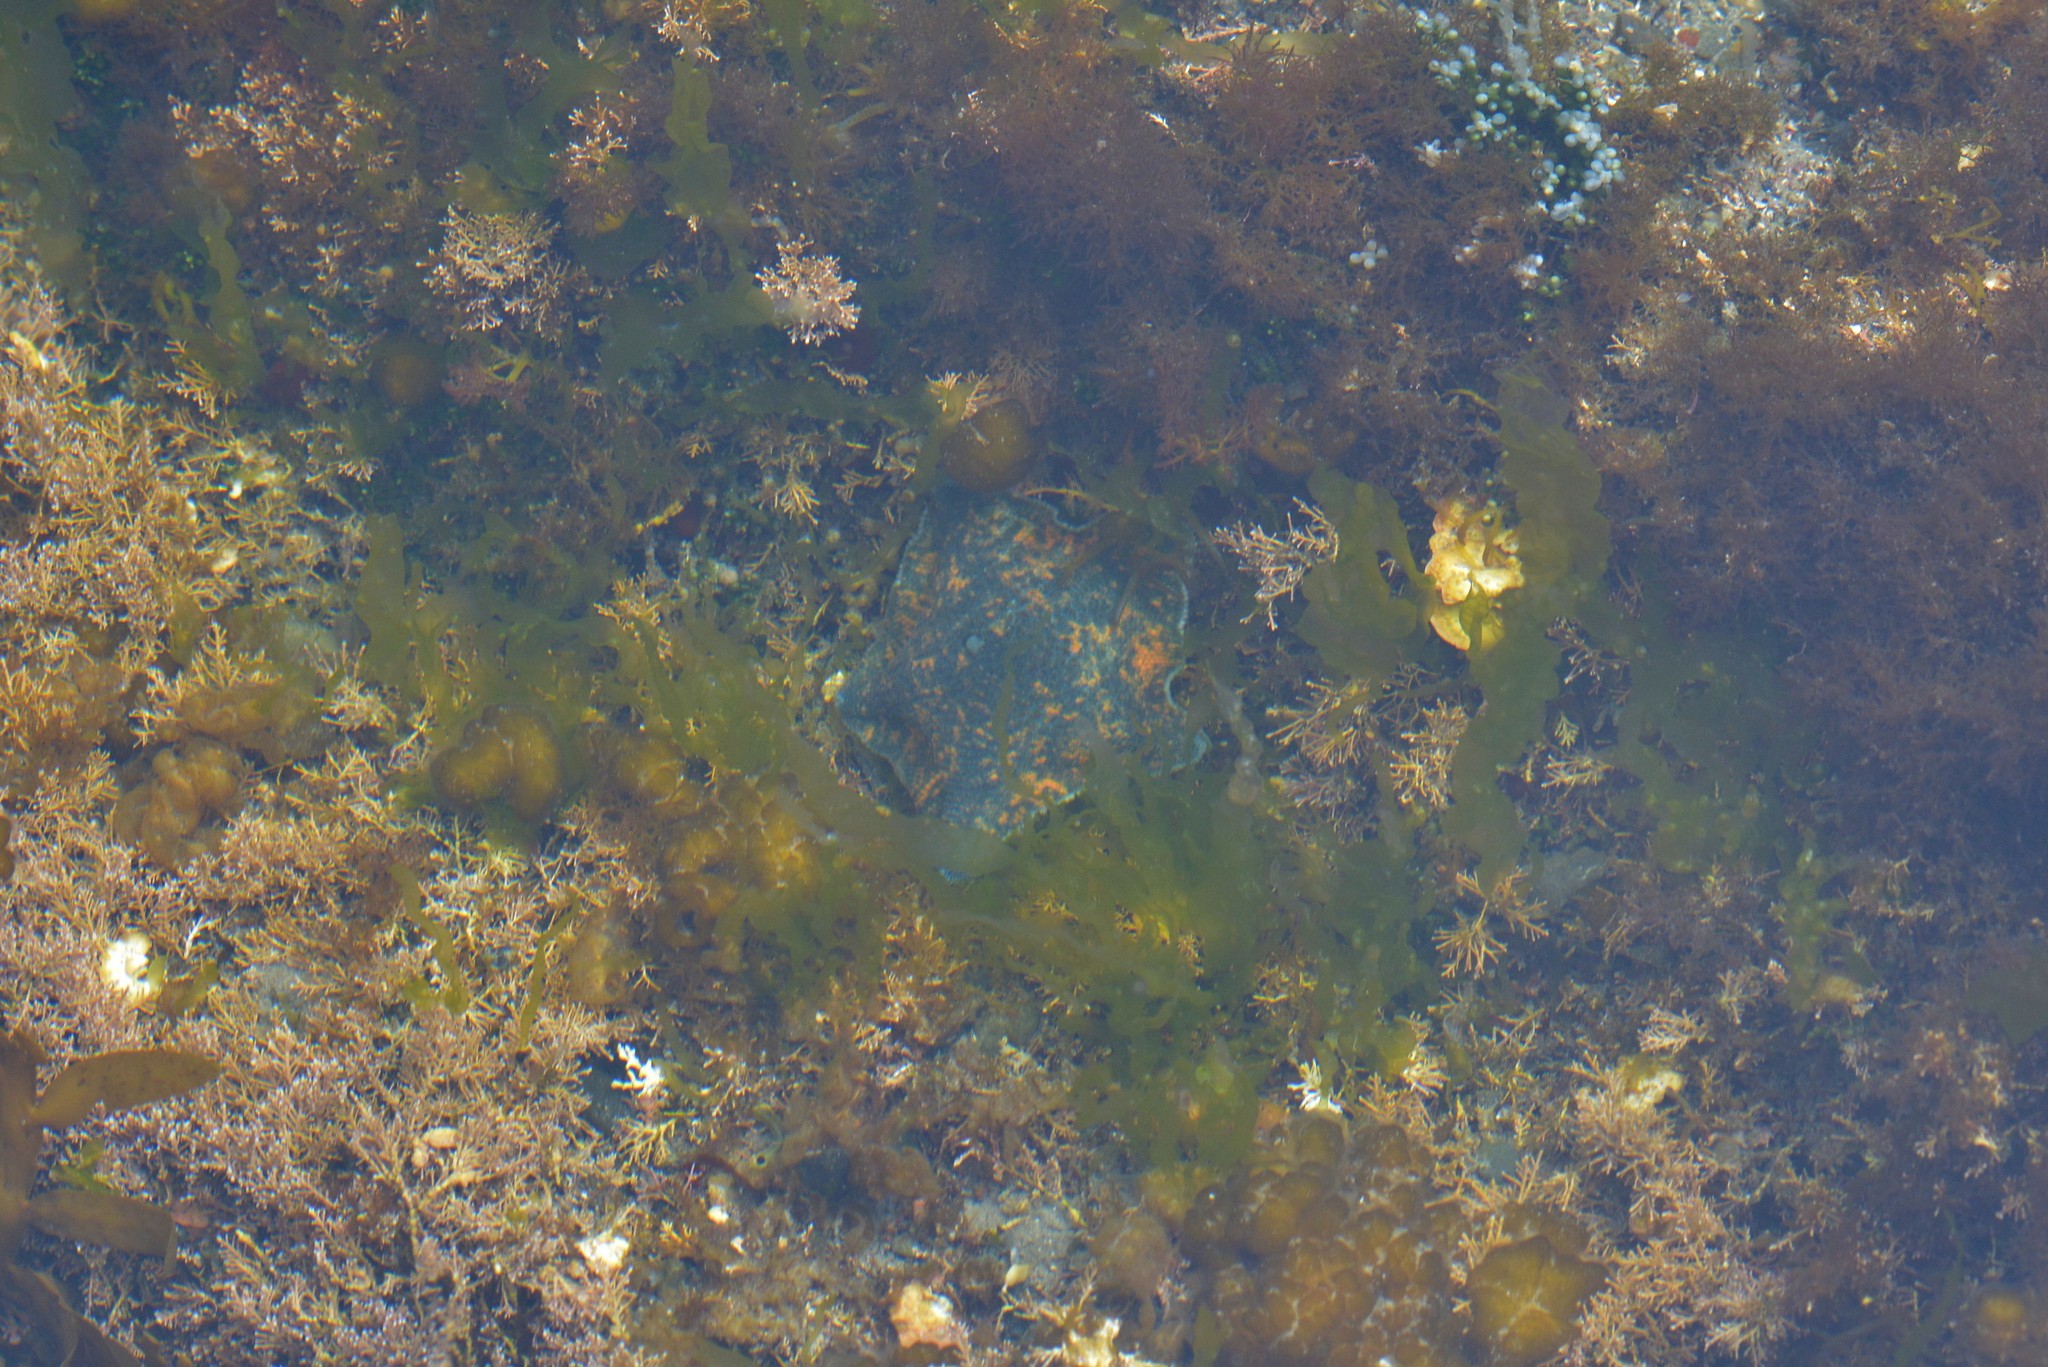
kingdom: Animalia
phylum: Echinodermata
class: Asteroidea
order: Valvatida
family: Asterinidae
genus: Patiriella
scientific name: Patiriella regularis
